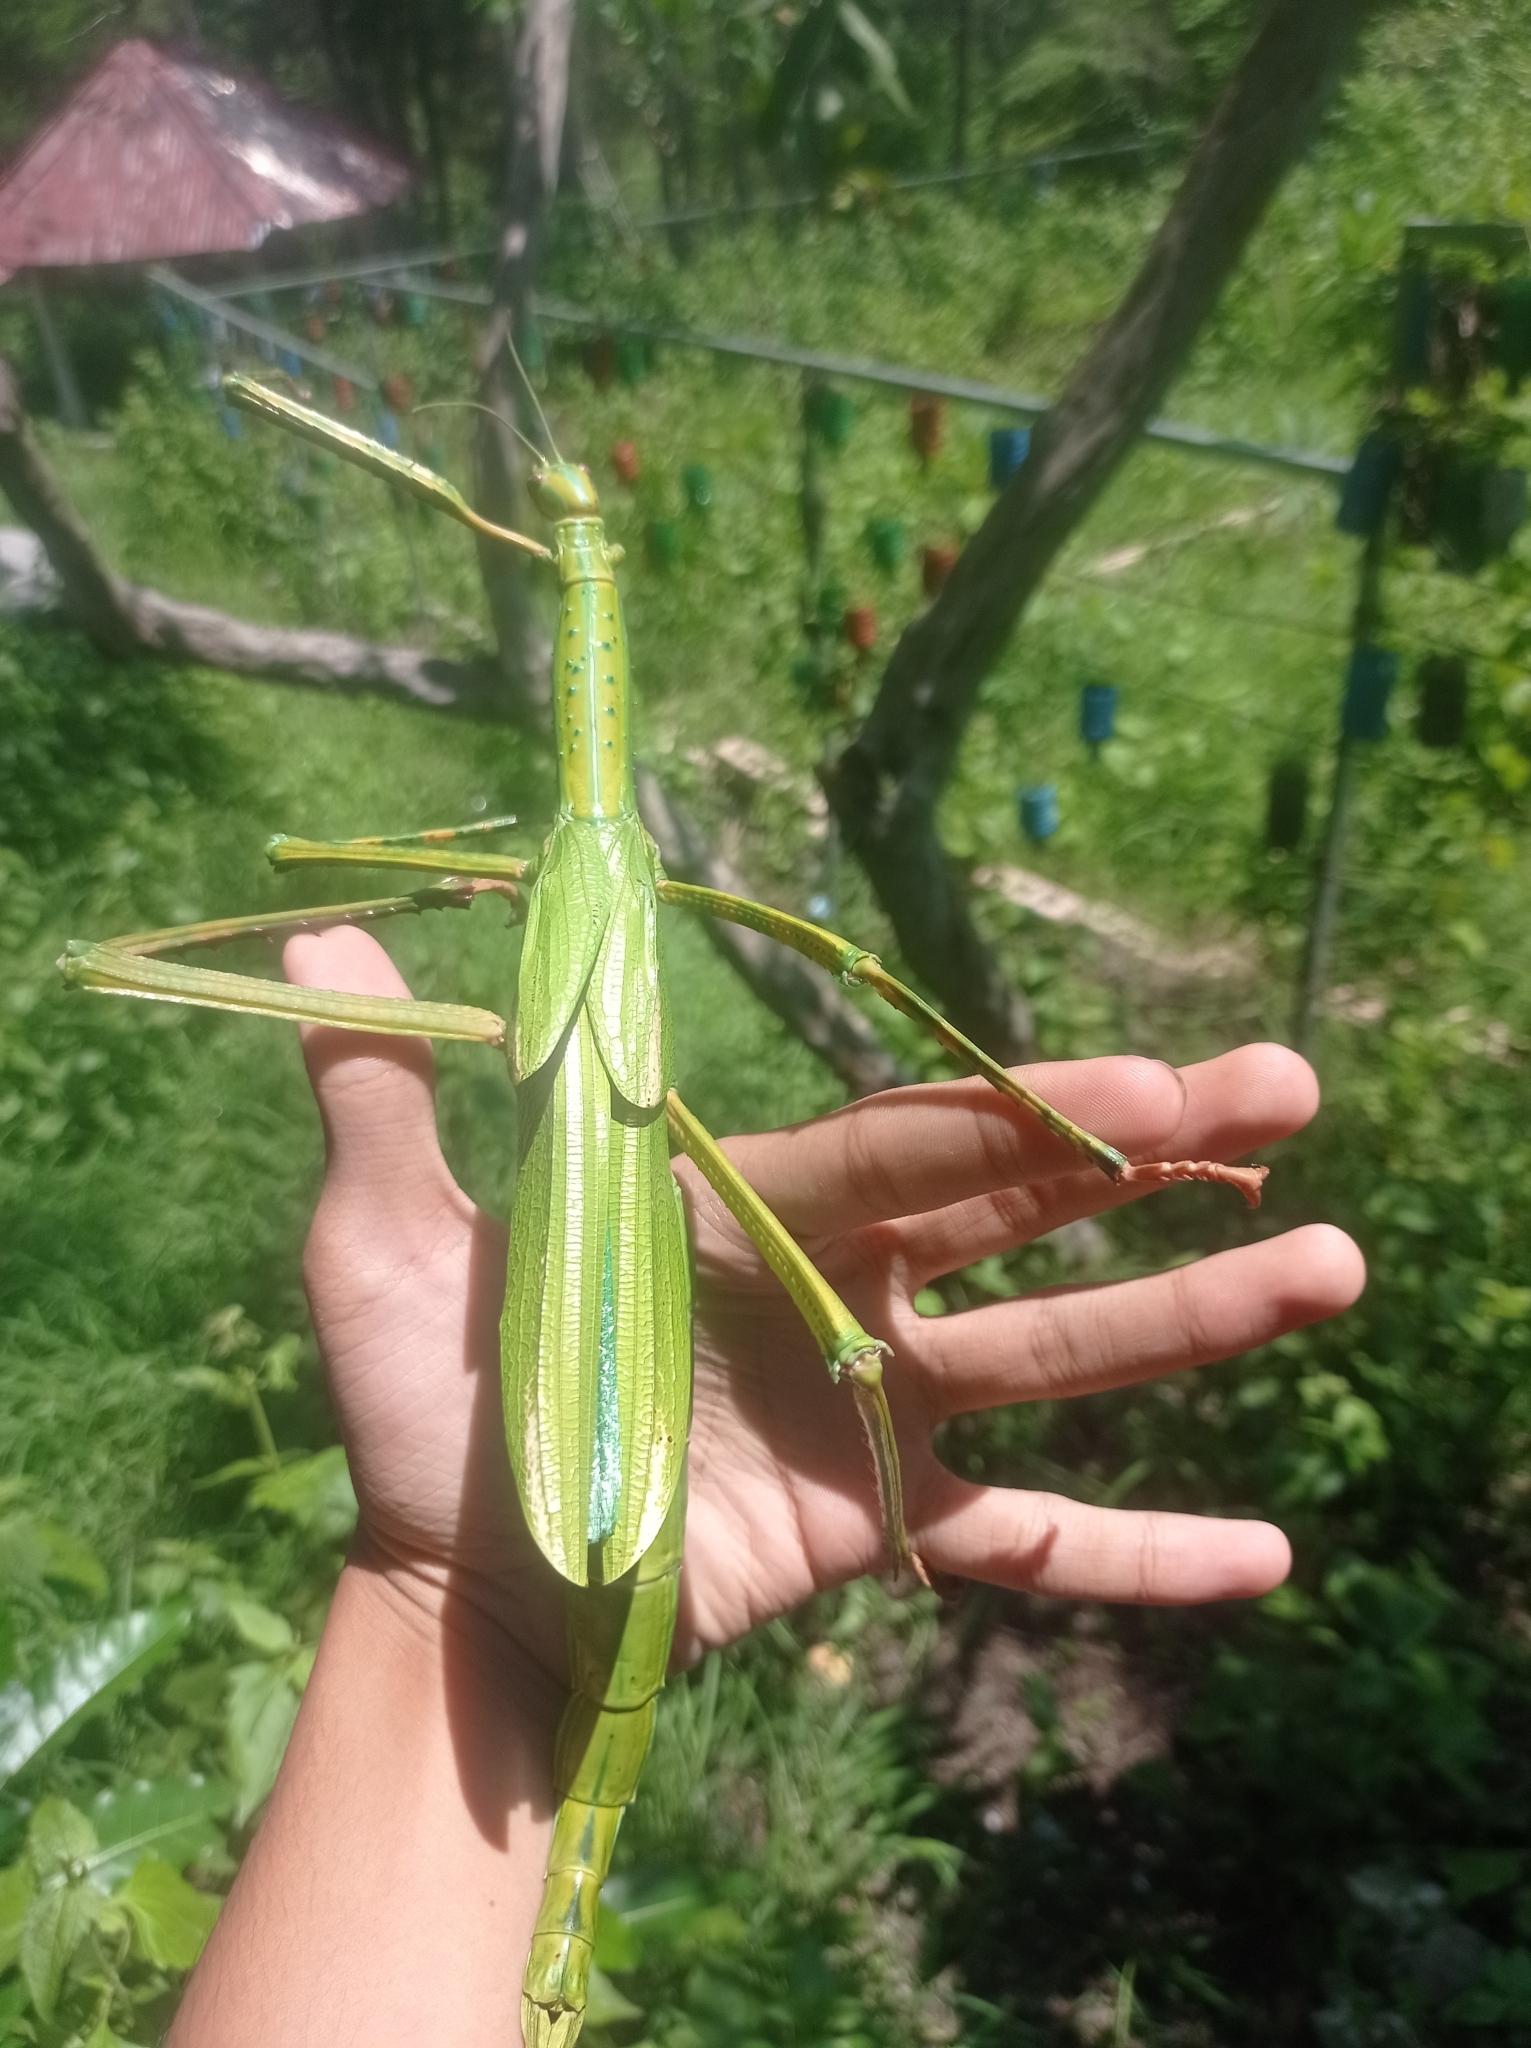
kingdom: Animalia
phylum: Arthropoda
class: Insecta
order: Phasmida
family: Phasmatidae
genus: Eurycnema
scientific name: Eurycnema versirubra
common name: Red-winged green giant stick-insect
